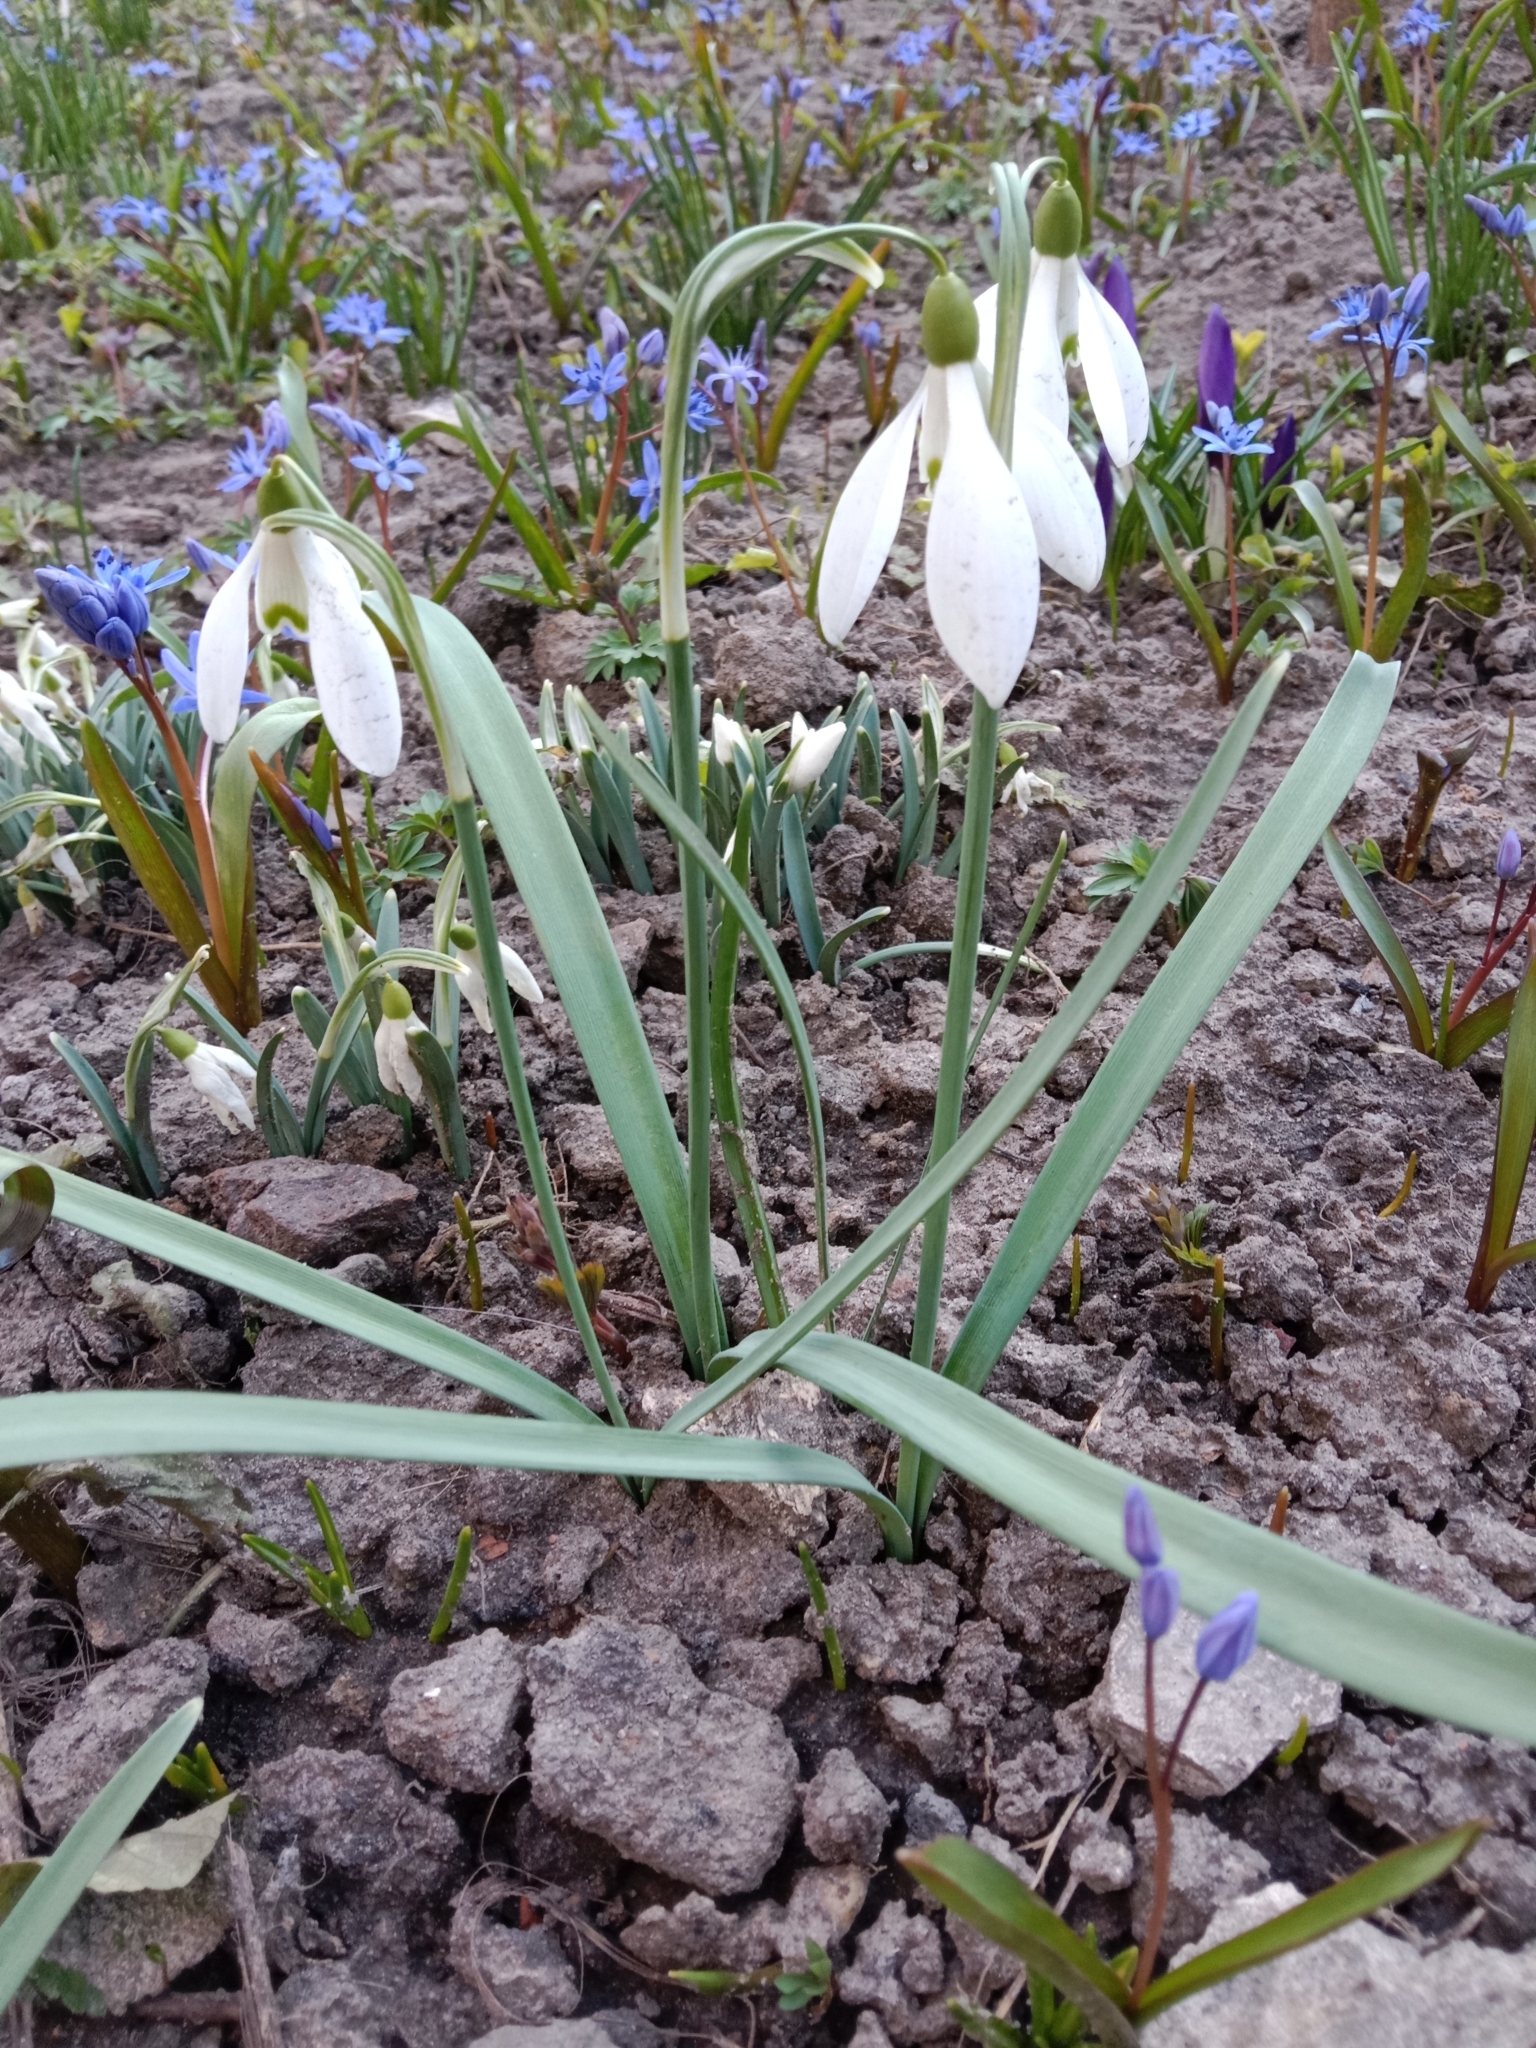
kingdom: Plantae
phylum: Tracheophyta
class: Liliopsida
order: Asparagales
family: Amaryllidaceae
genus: Galanthus
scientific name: Galanthus nivalis
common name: Snowdrop
